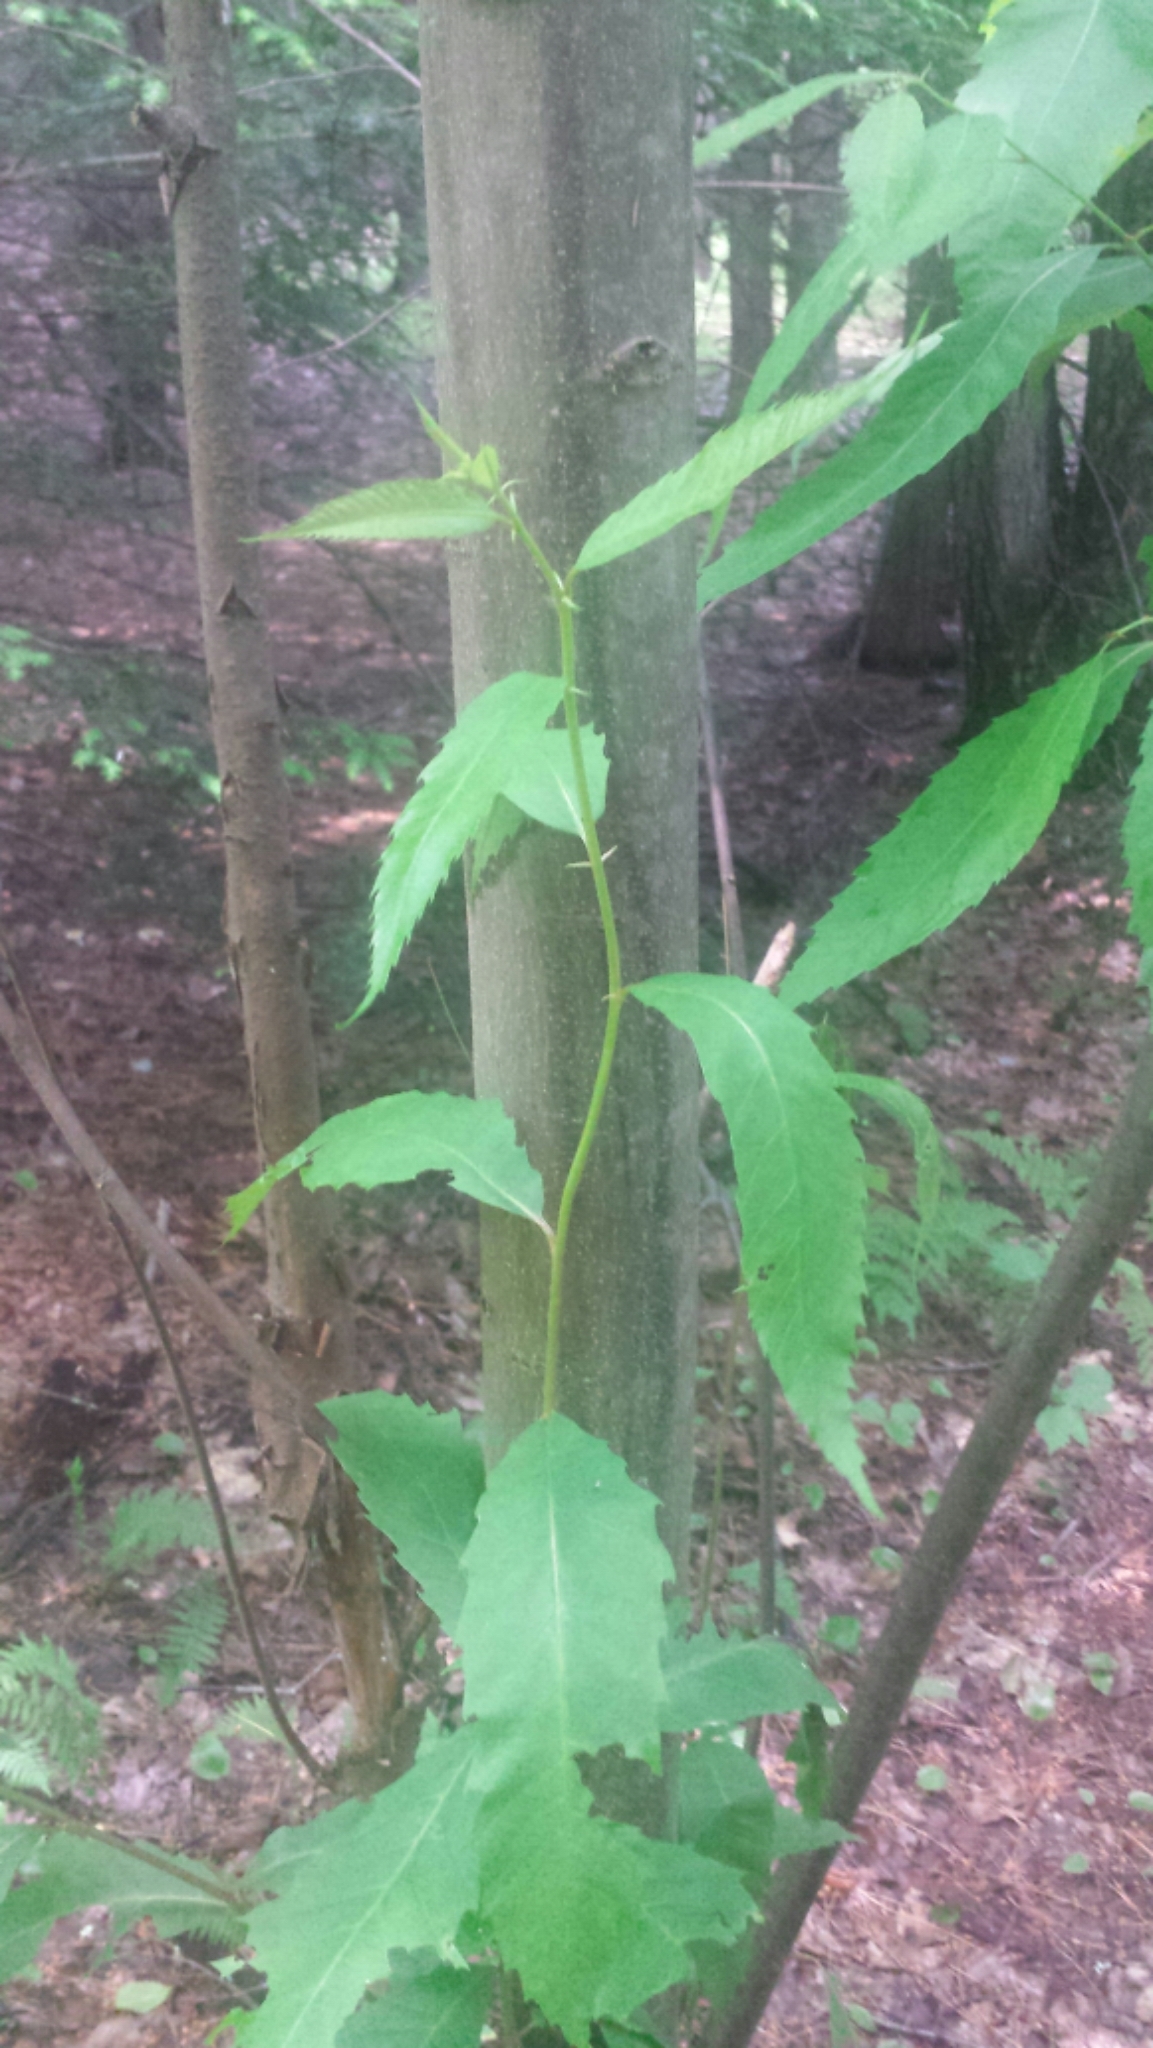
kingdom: Plantae
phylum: Tracheophyta
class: Magnoliopsida
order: Fagales
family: Fagaceae
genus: Castanea
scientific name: Castanea dentata
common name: American chestnut
